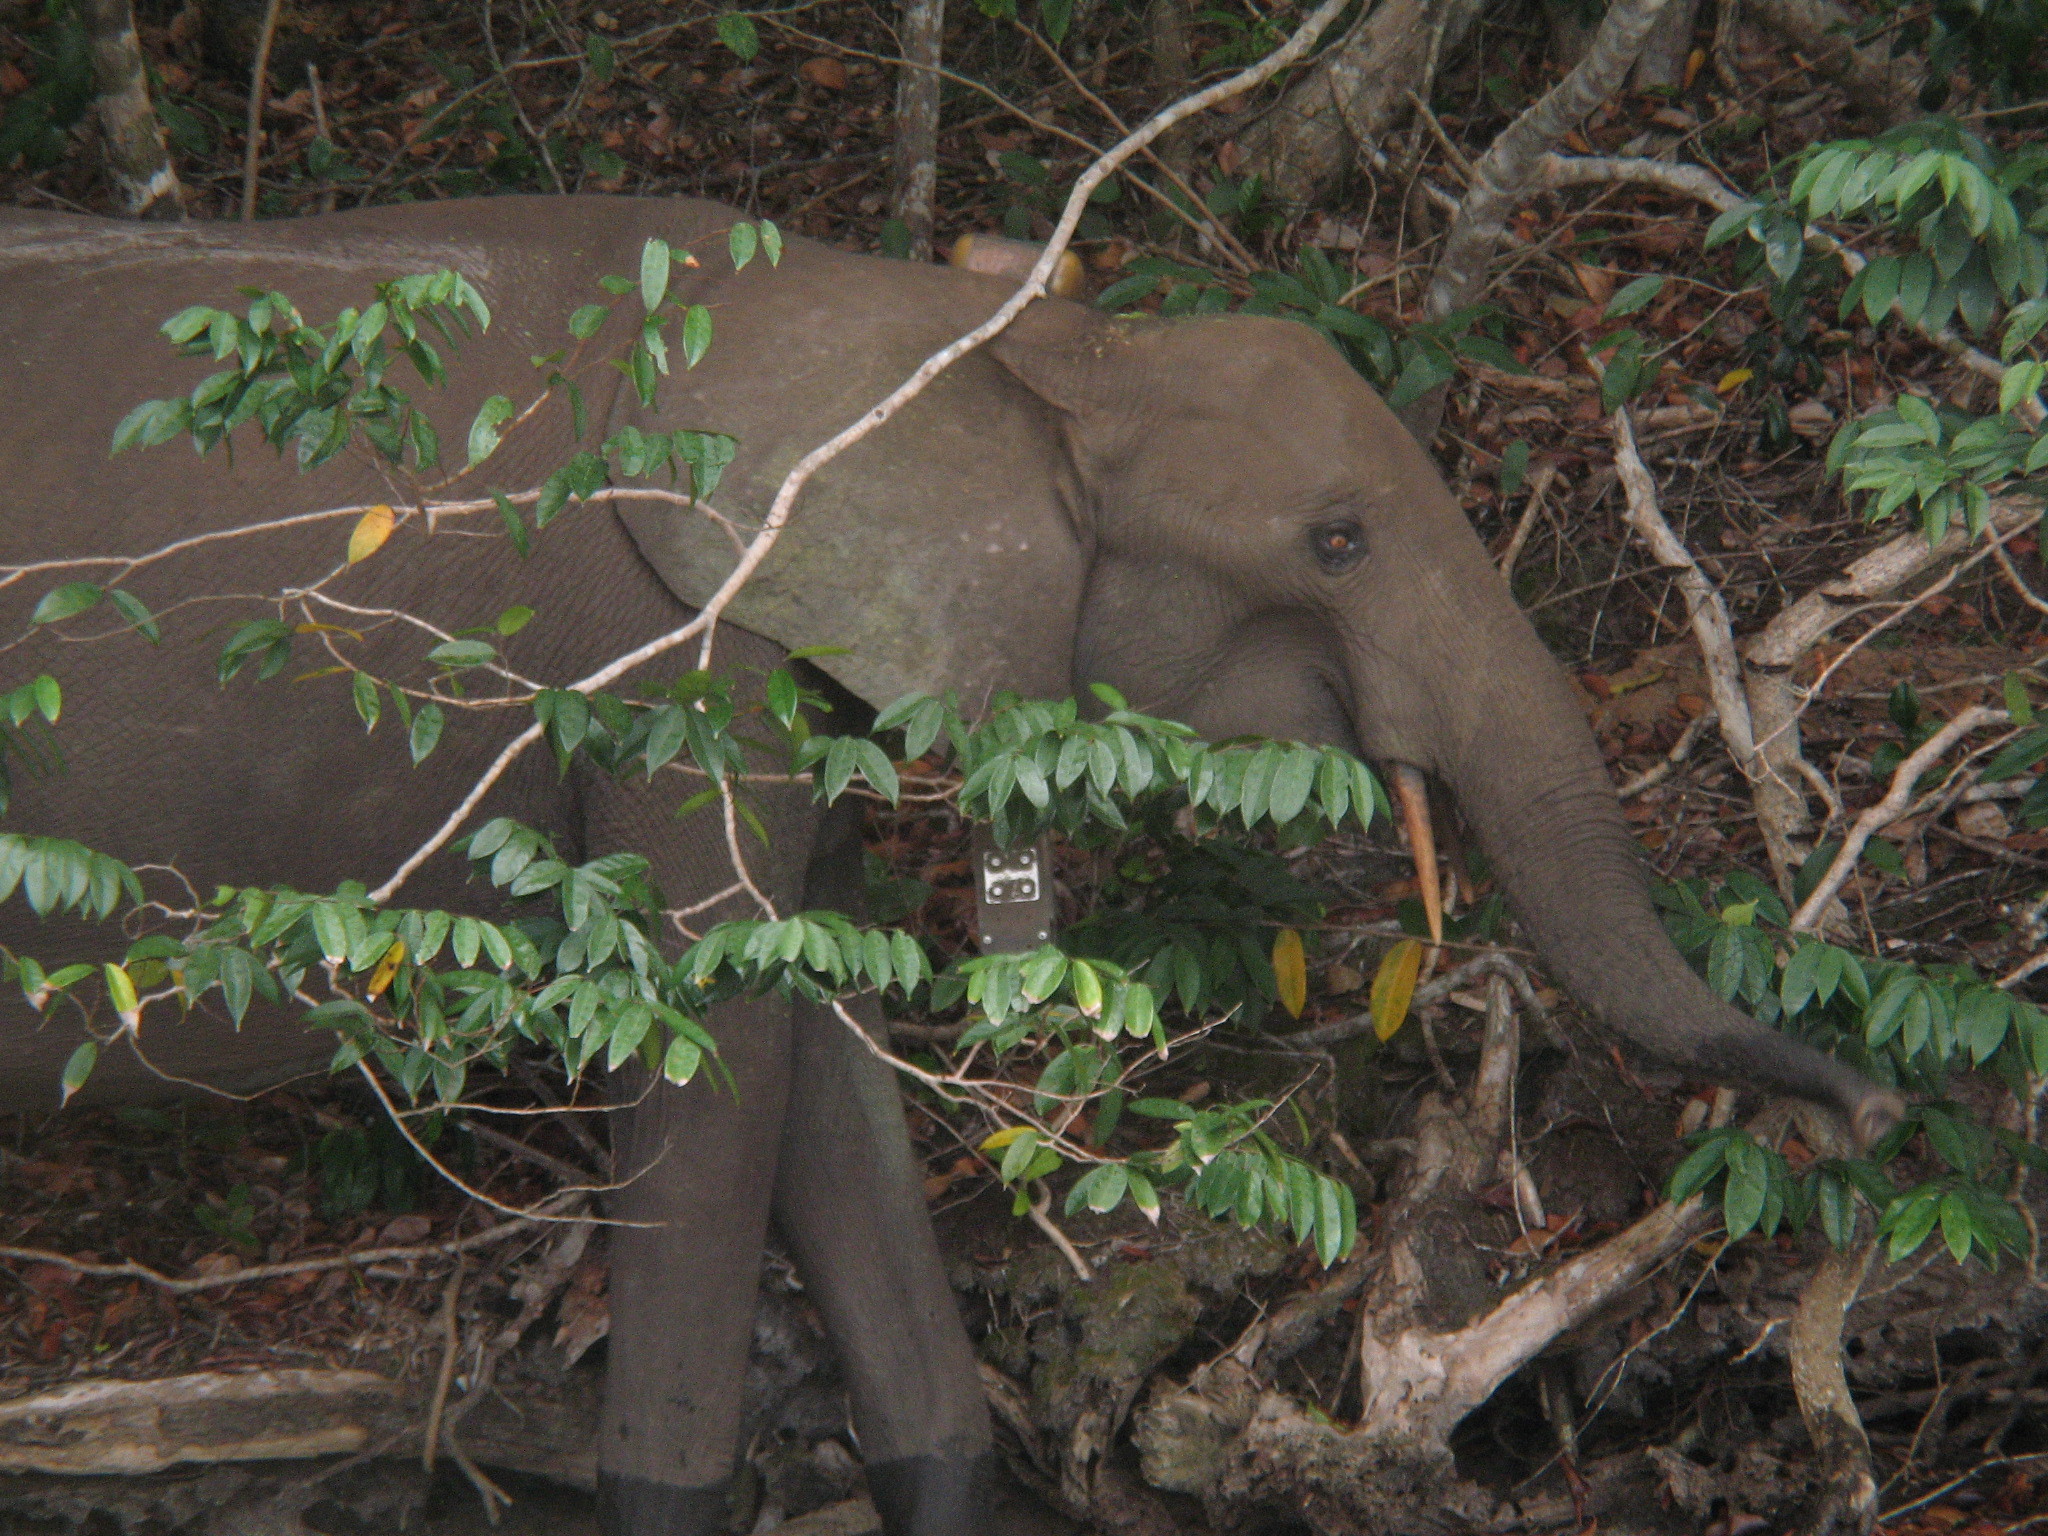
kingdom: Animalia
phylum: Chordata
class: Mammalia
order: Proboscidea
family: Elephantidae
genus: Loxodonta
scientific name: Loxodonta cyclotis
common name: African forest elephant
